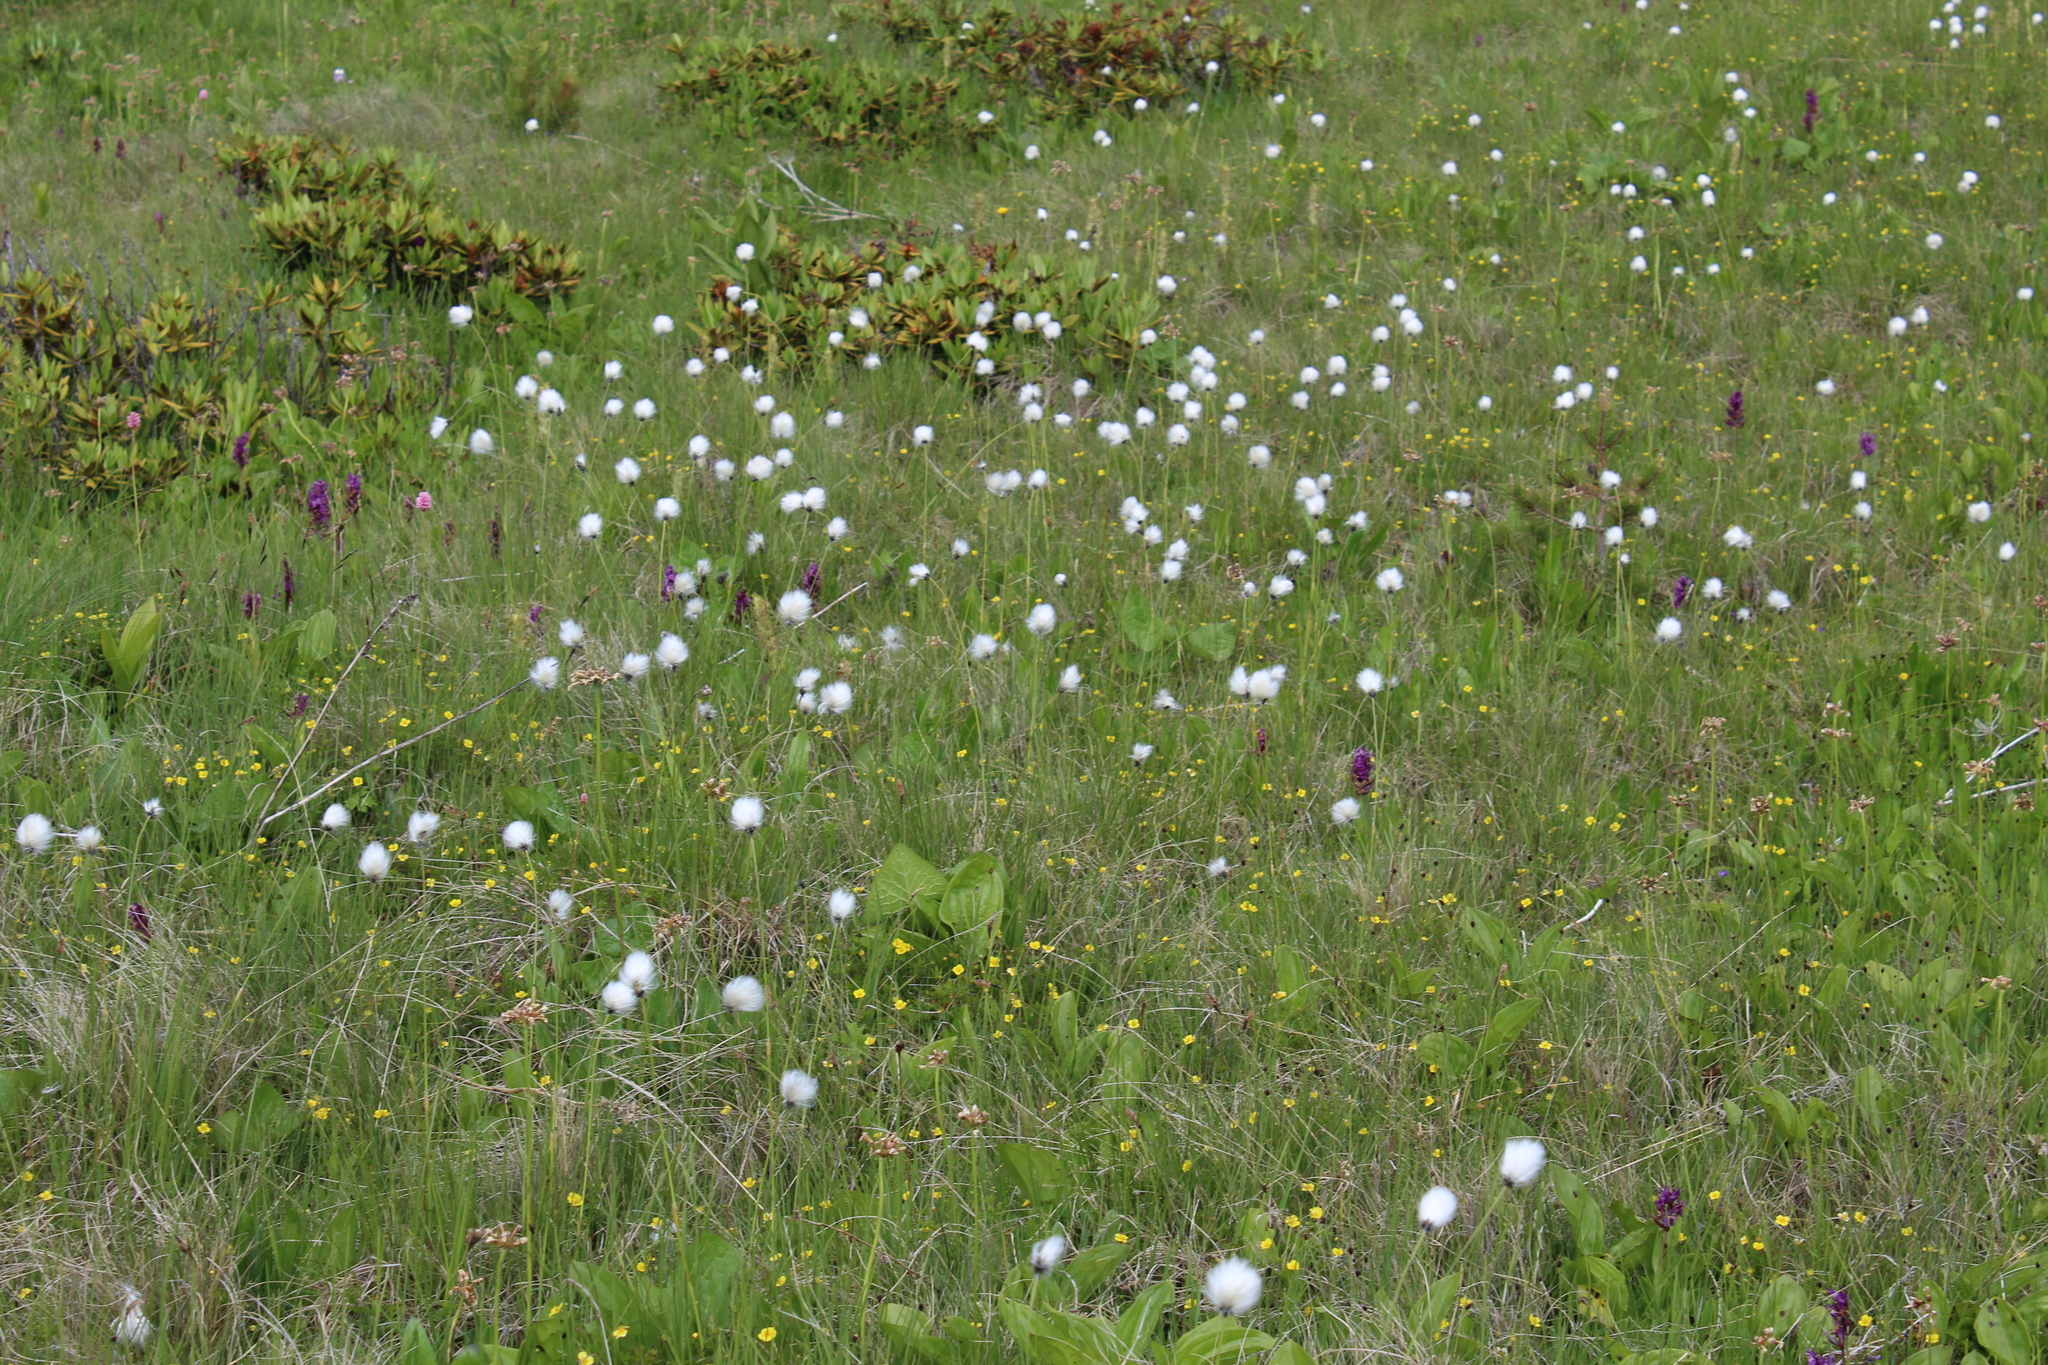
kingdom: Plantae
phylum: Tracheophyta
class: Liliopsida
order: Poales
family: Cyperaceae
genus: Eriophorum
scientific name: Eriophorum vaginatum
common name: Hare's-tail cottongrass
